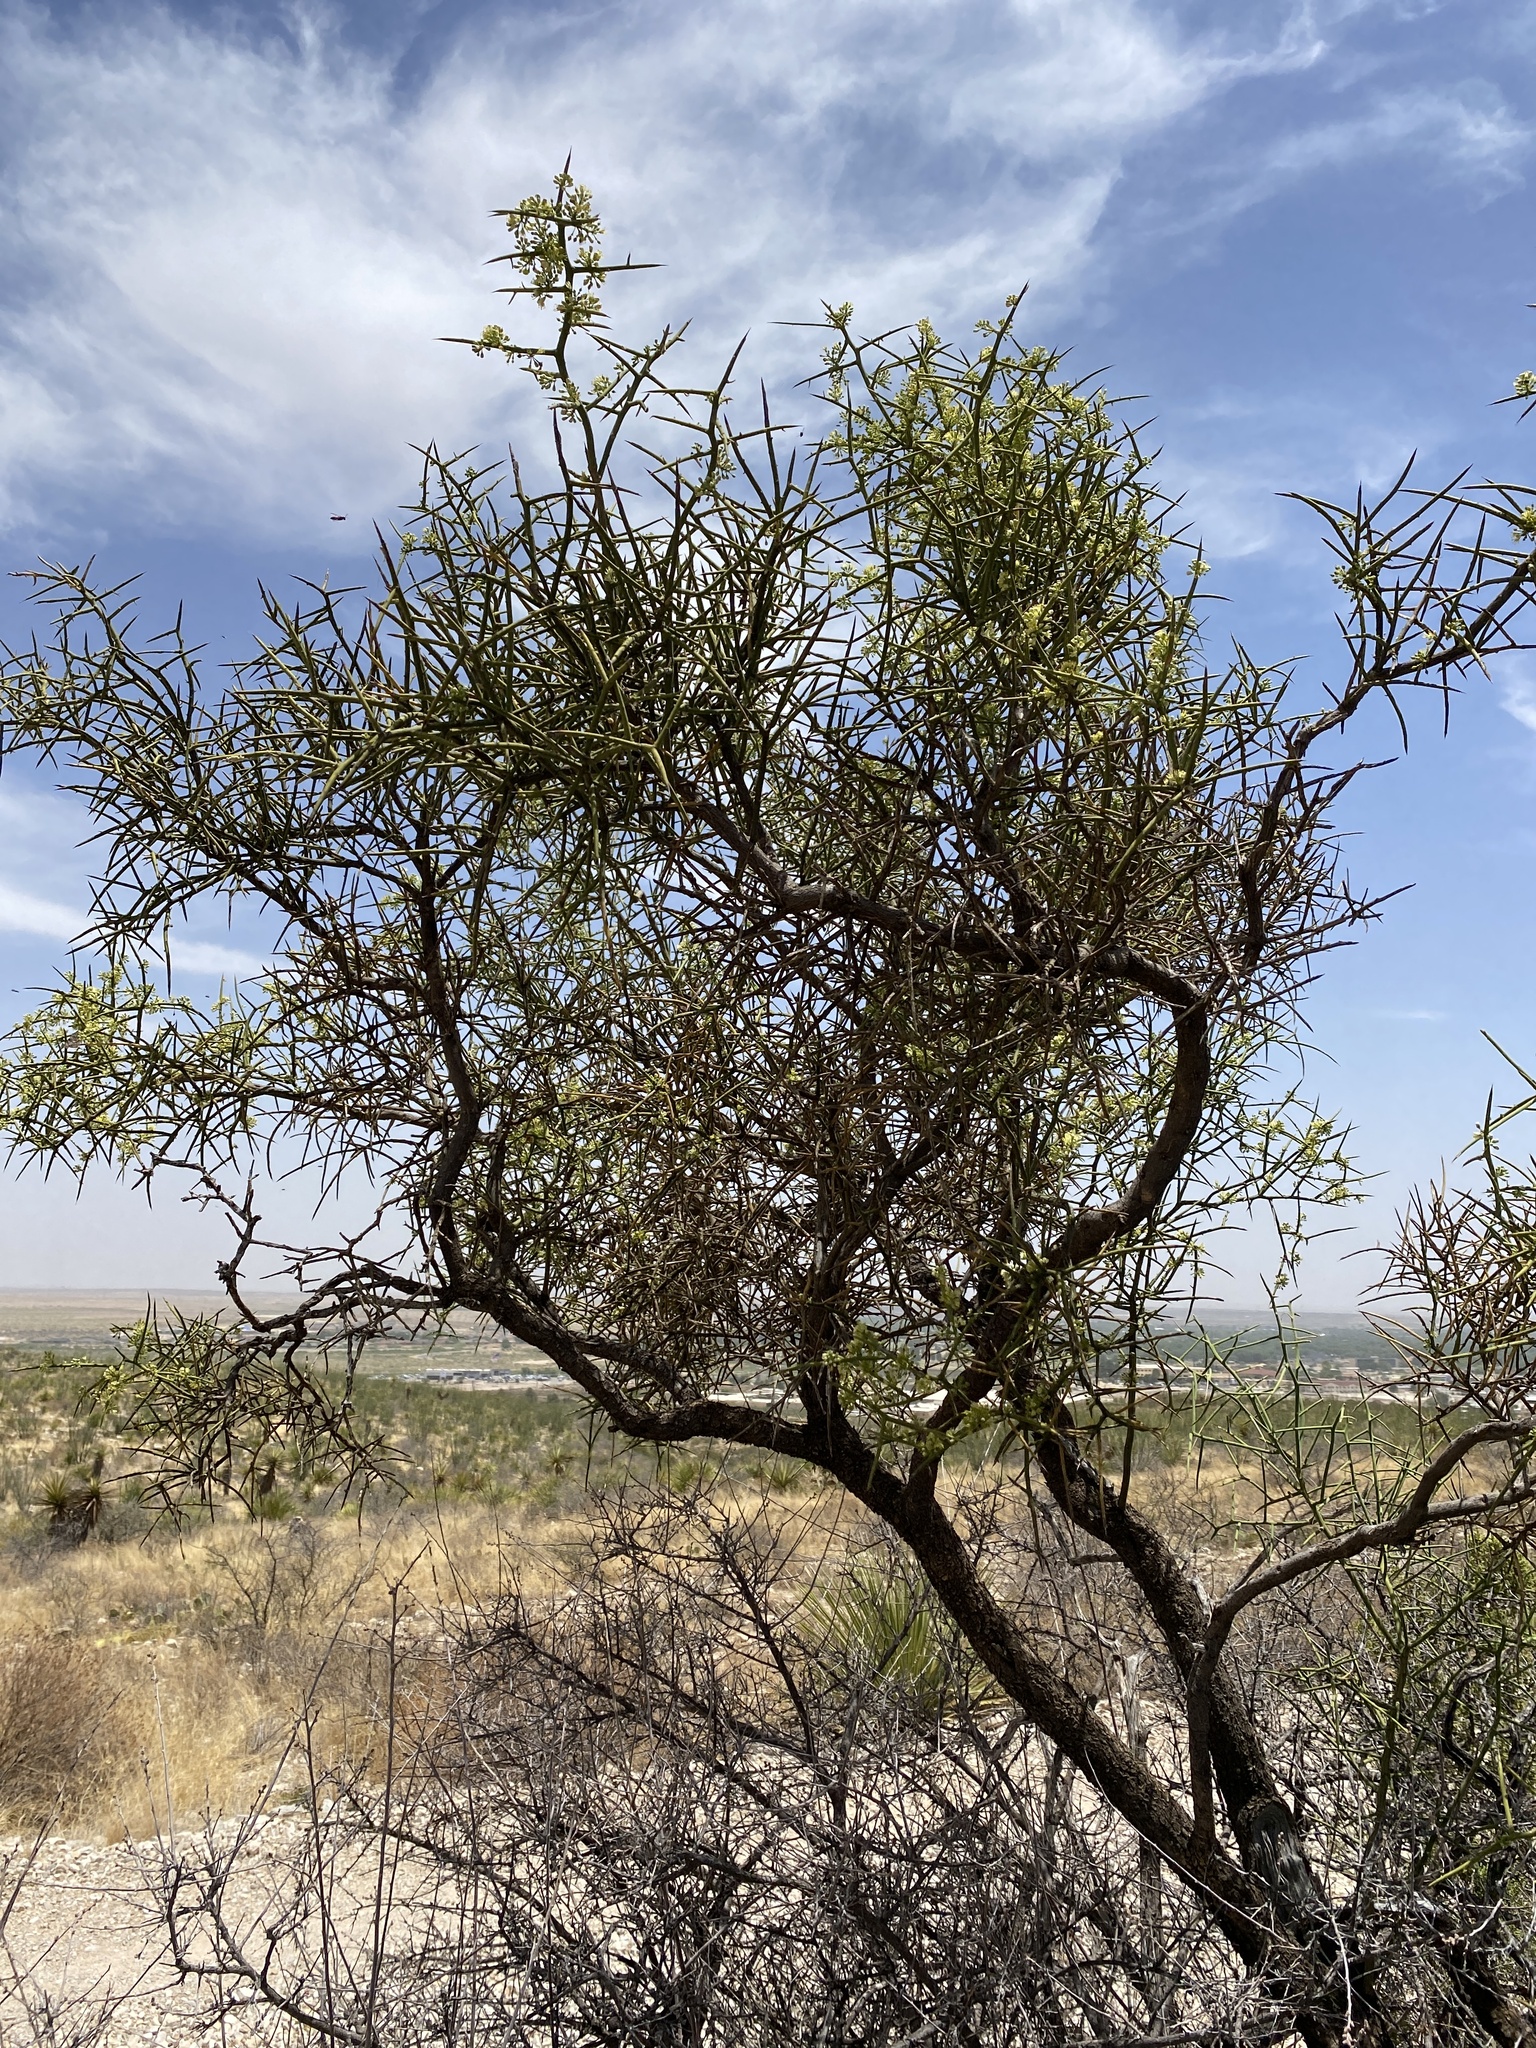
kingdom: Plantae
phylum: Tracheophyta
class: Magnoliopsida
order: Brassicales
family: Koeberliniaceae
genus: Koeberlinia
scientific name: Koeberlinia spinosa
